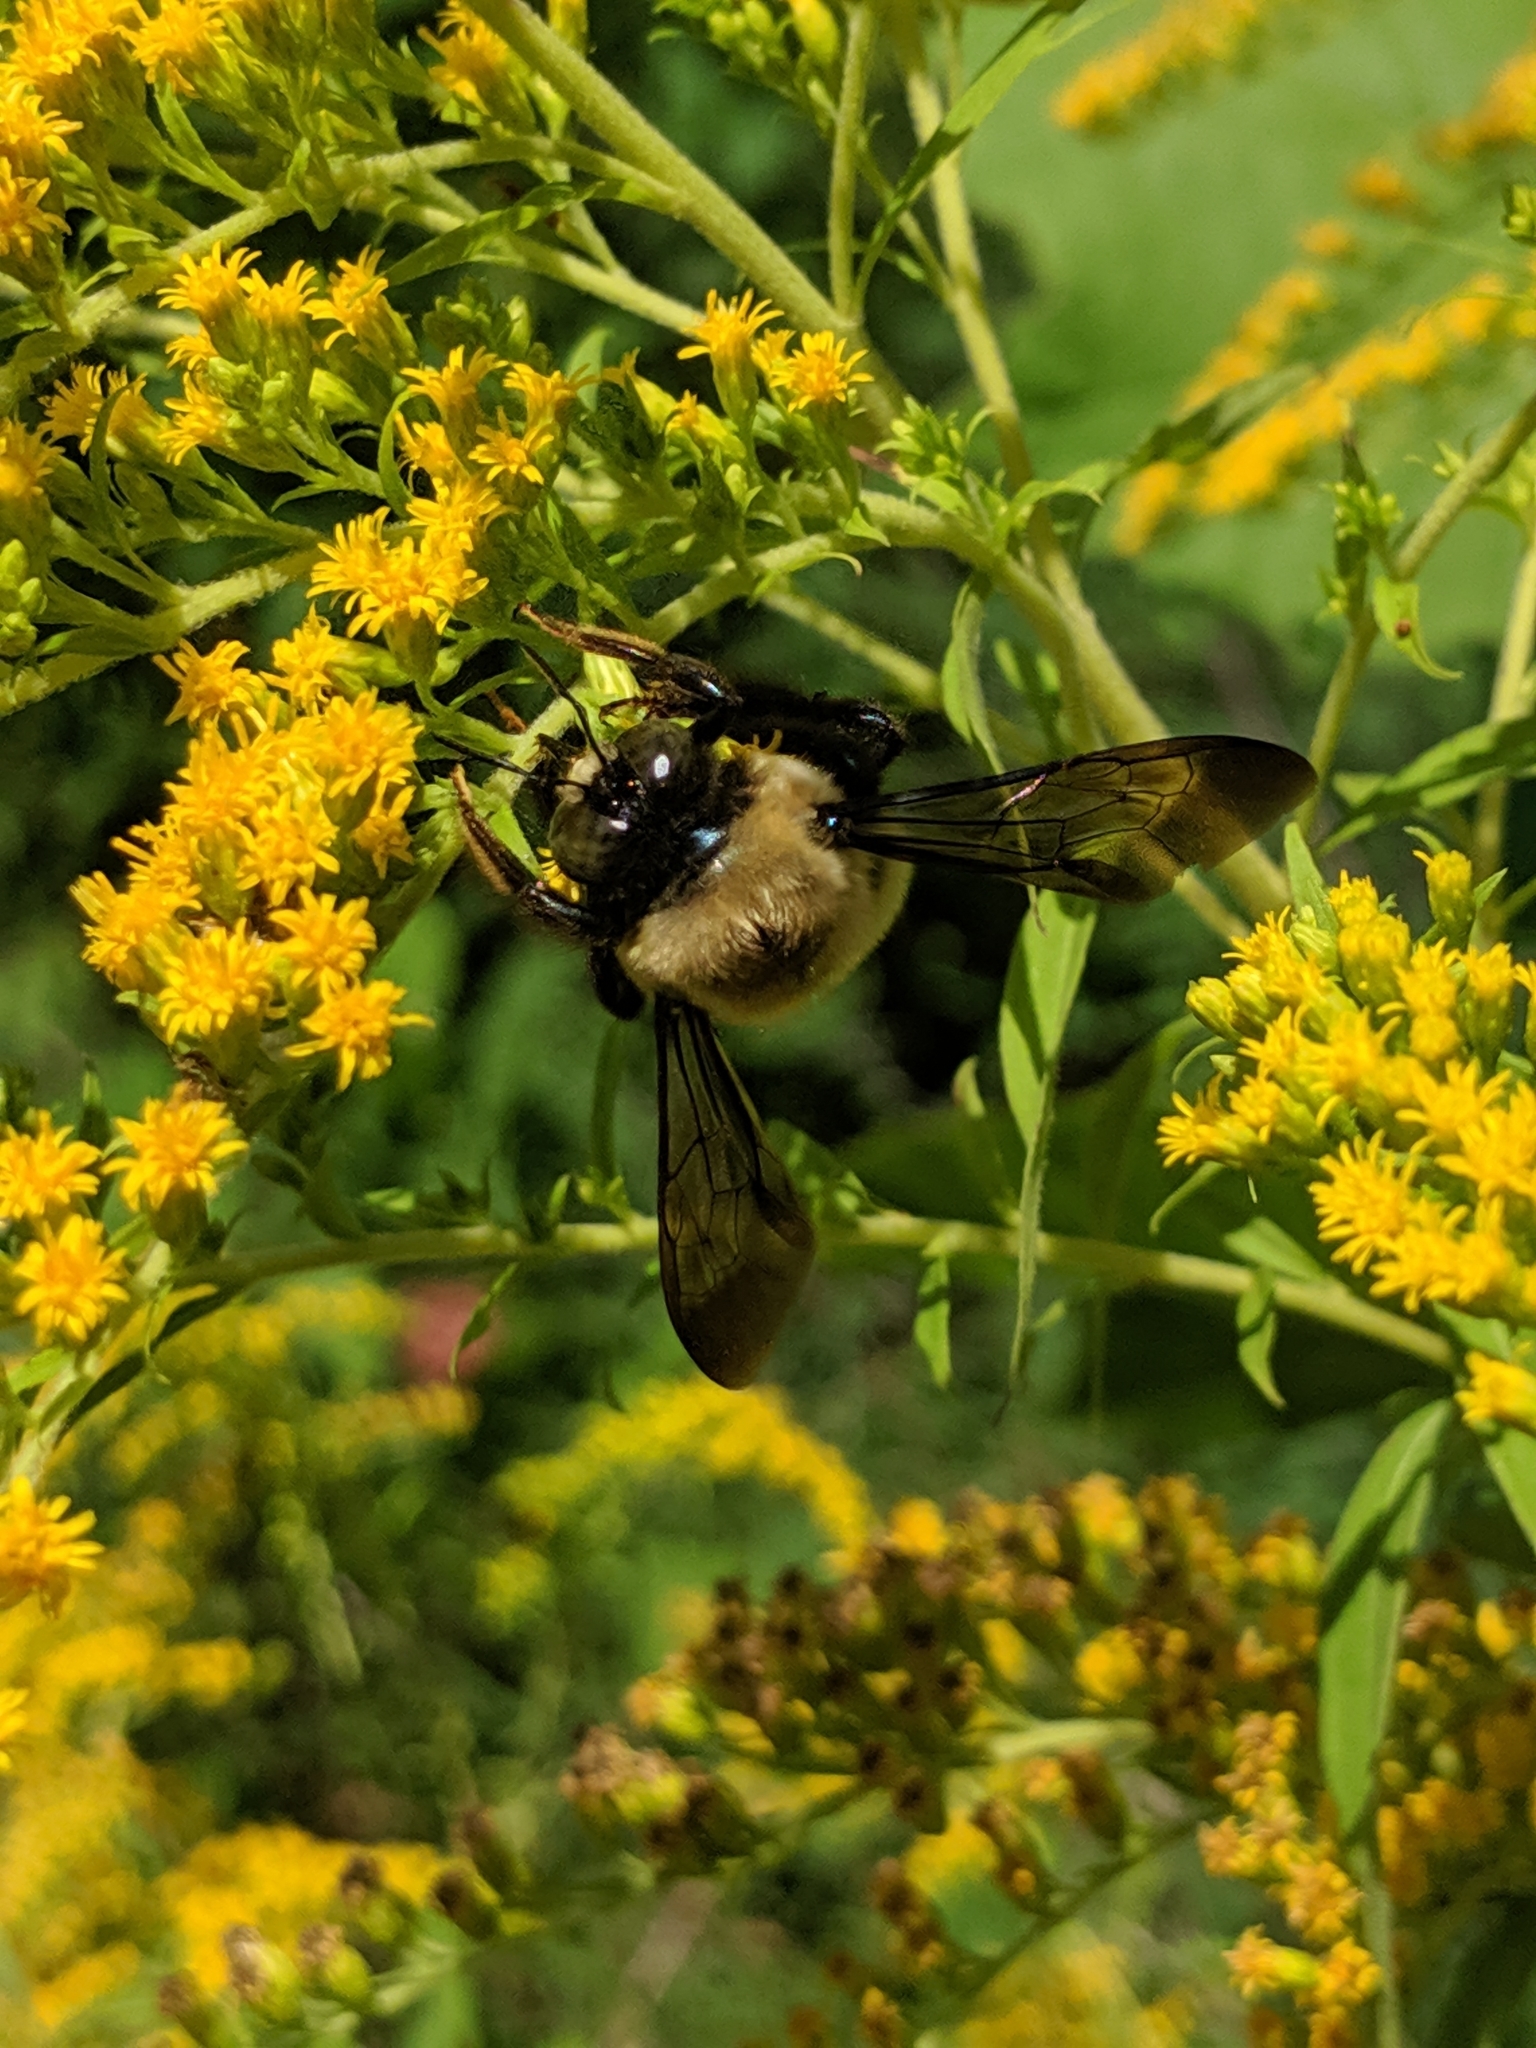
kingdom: Animalia
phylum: Arthropoda
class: Insecta
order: Hymenoptera
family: Apidae
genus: Xylocopa
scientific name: Xylocopa virginica
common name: Carpenter bee
